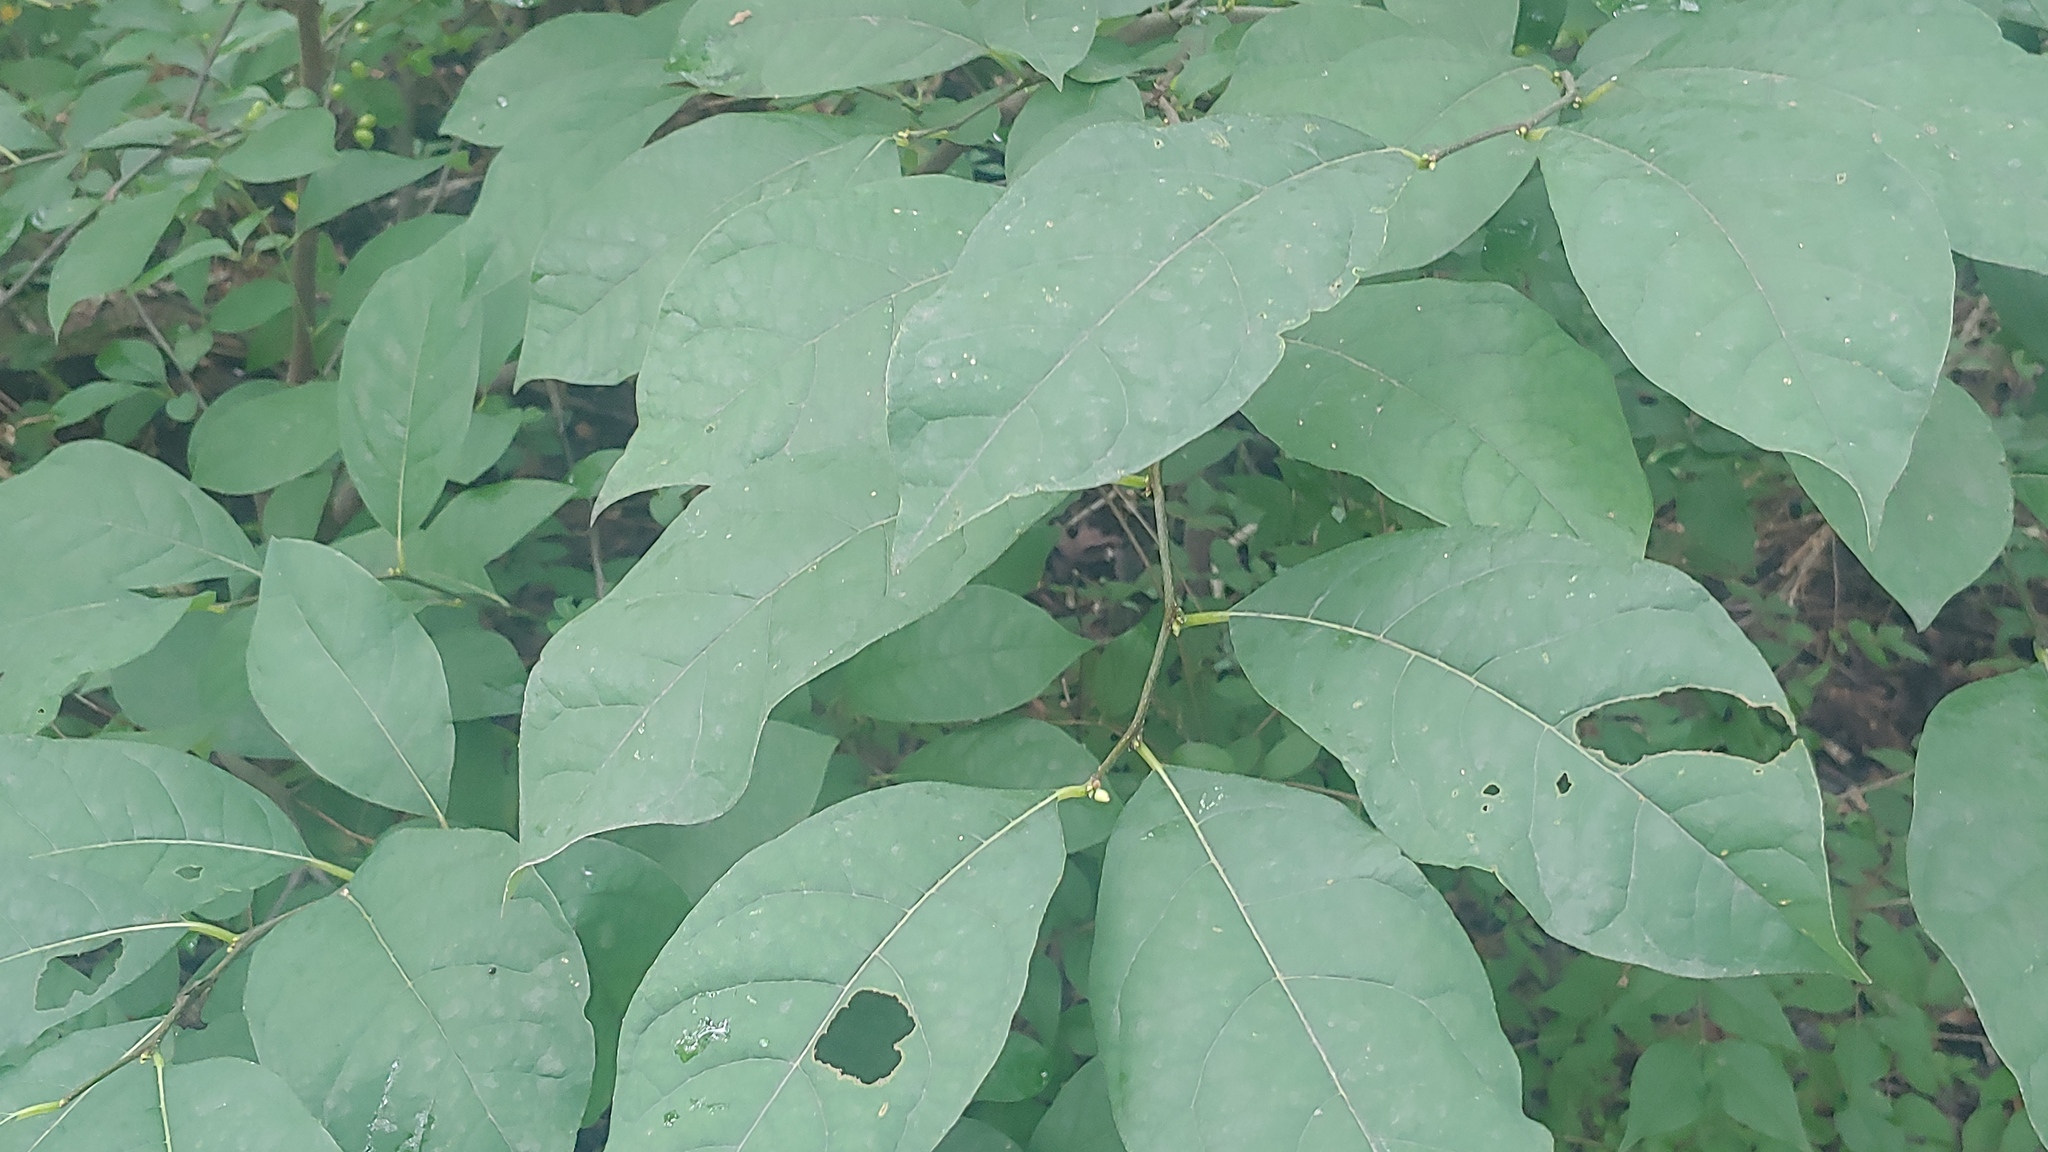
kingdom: Plantae
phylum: Tracheophyta
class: Magnoliopsida
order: Laurales
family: Lauraceae
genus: Lindera
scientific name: Lindera benzoin
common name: Spicebush
